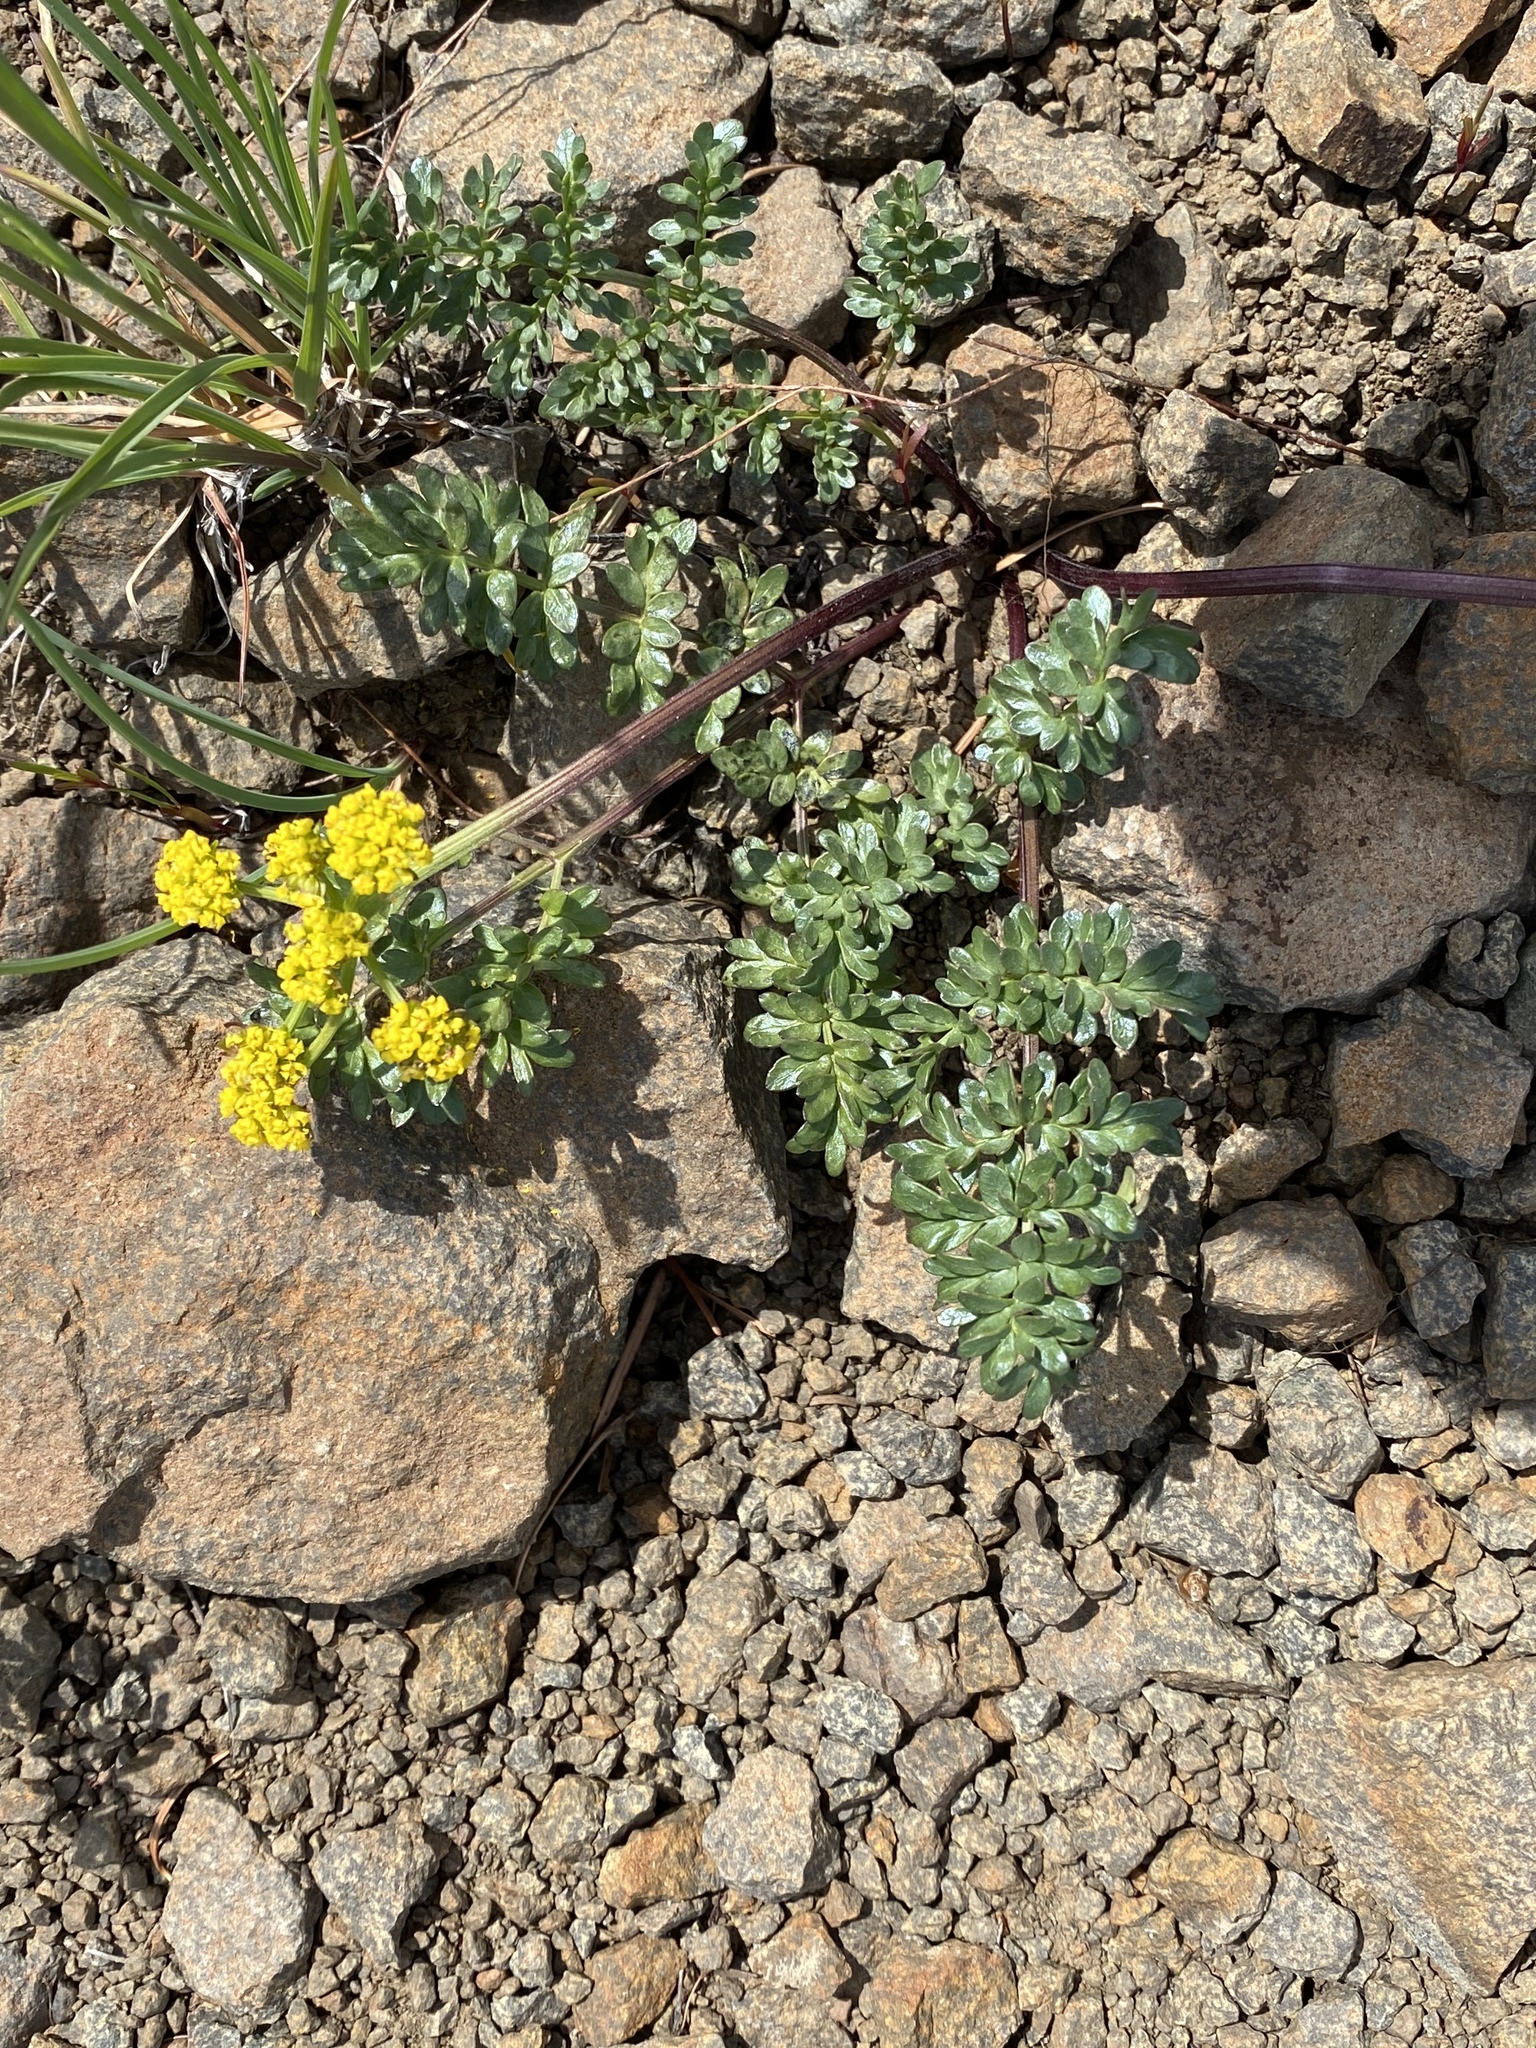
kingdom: Plantae
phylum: Tracheophyta
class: Magnoliopsida
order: Apiales
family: Apiaceae
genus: Lomatium
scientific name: Lomatium cous
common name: Biscuit-root
